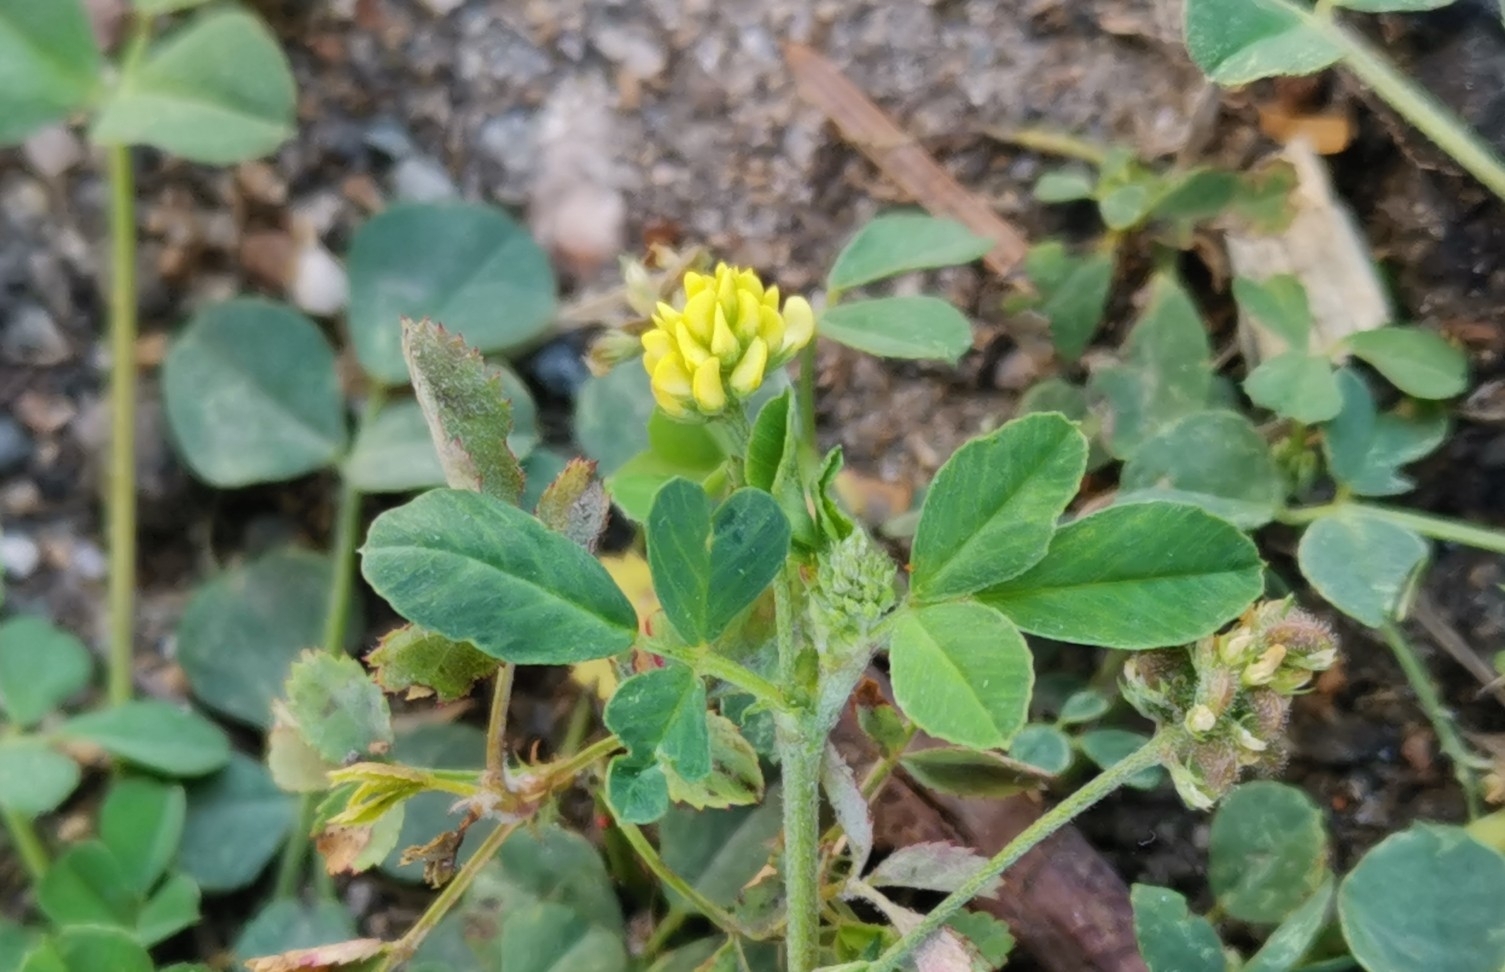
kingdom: Plantae
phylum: Tracheophyta
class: Magnoliopsida
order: Fabales
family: Fabaceae
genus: Medicago
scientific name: Medicago lupulina
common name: Black medick
